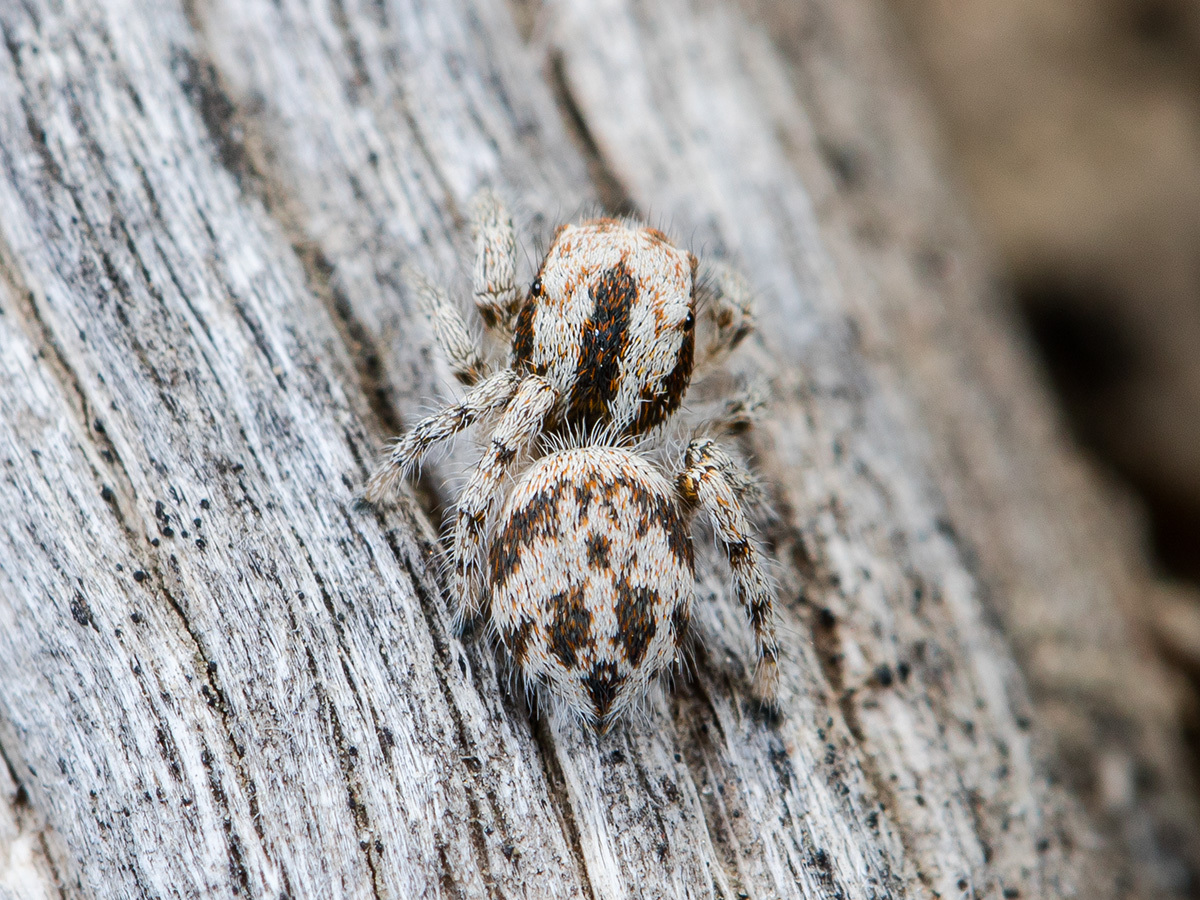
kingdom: Animalia
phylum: Arthropoda
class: Arachnida
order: Araneae
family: Salticidae
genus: Pseudomogrus
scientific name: Pseudomogrus dalaensis
